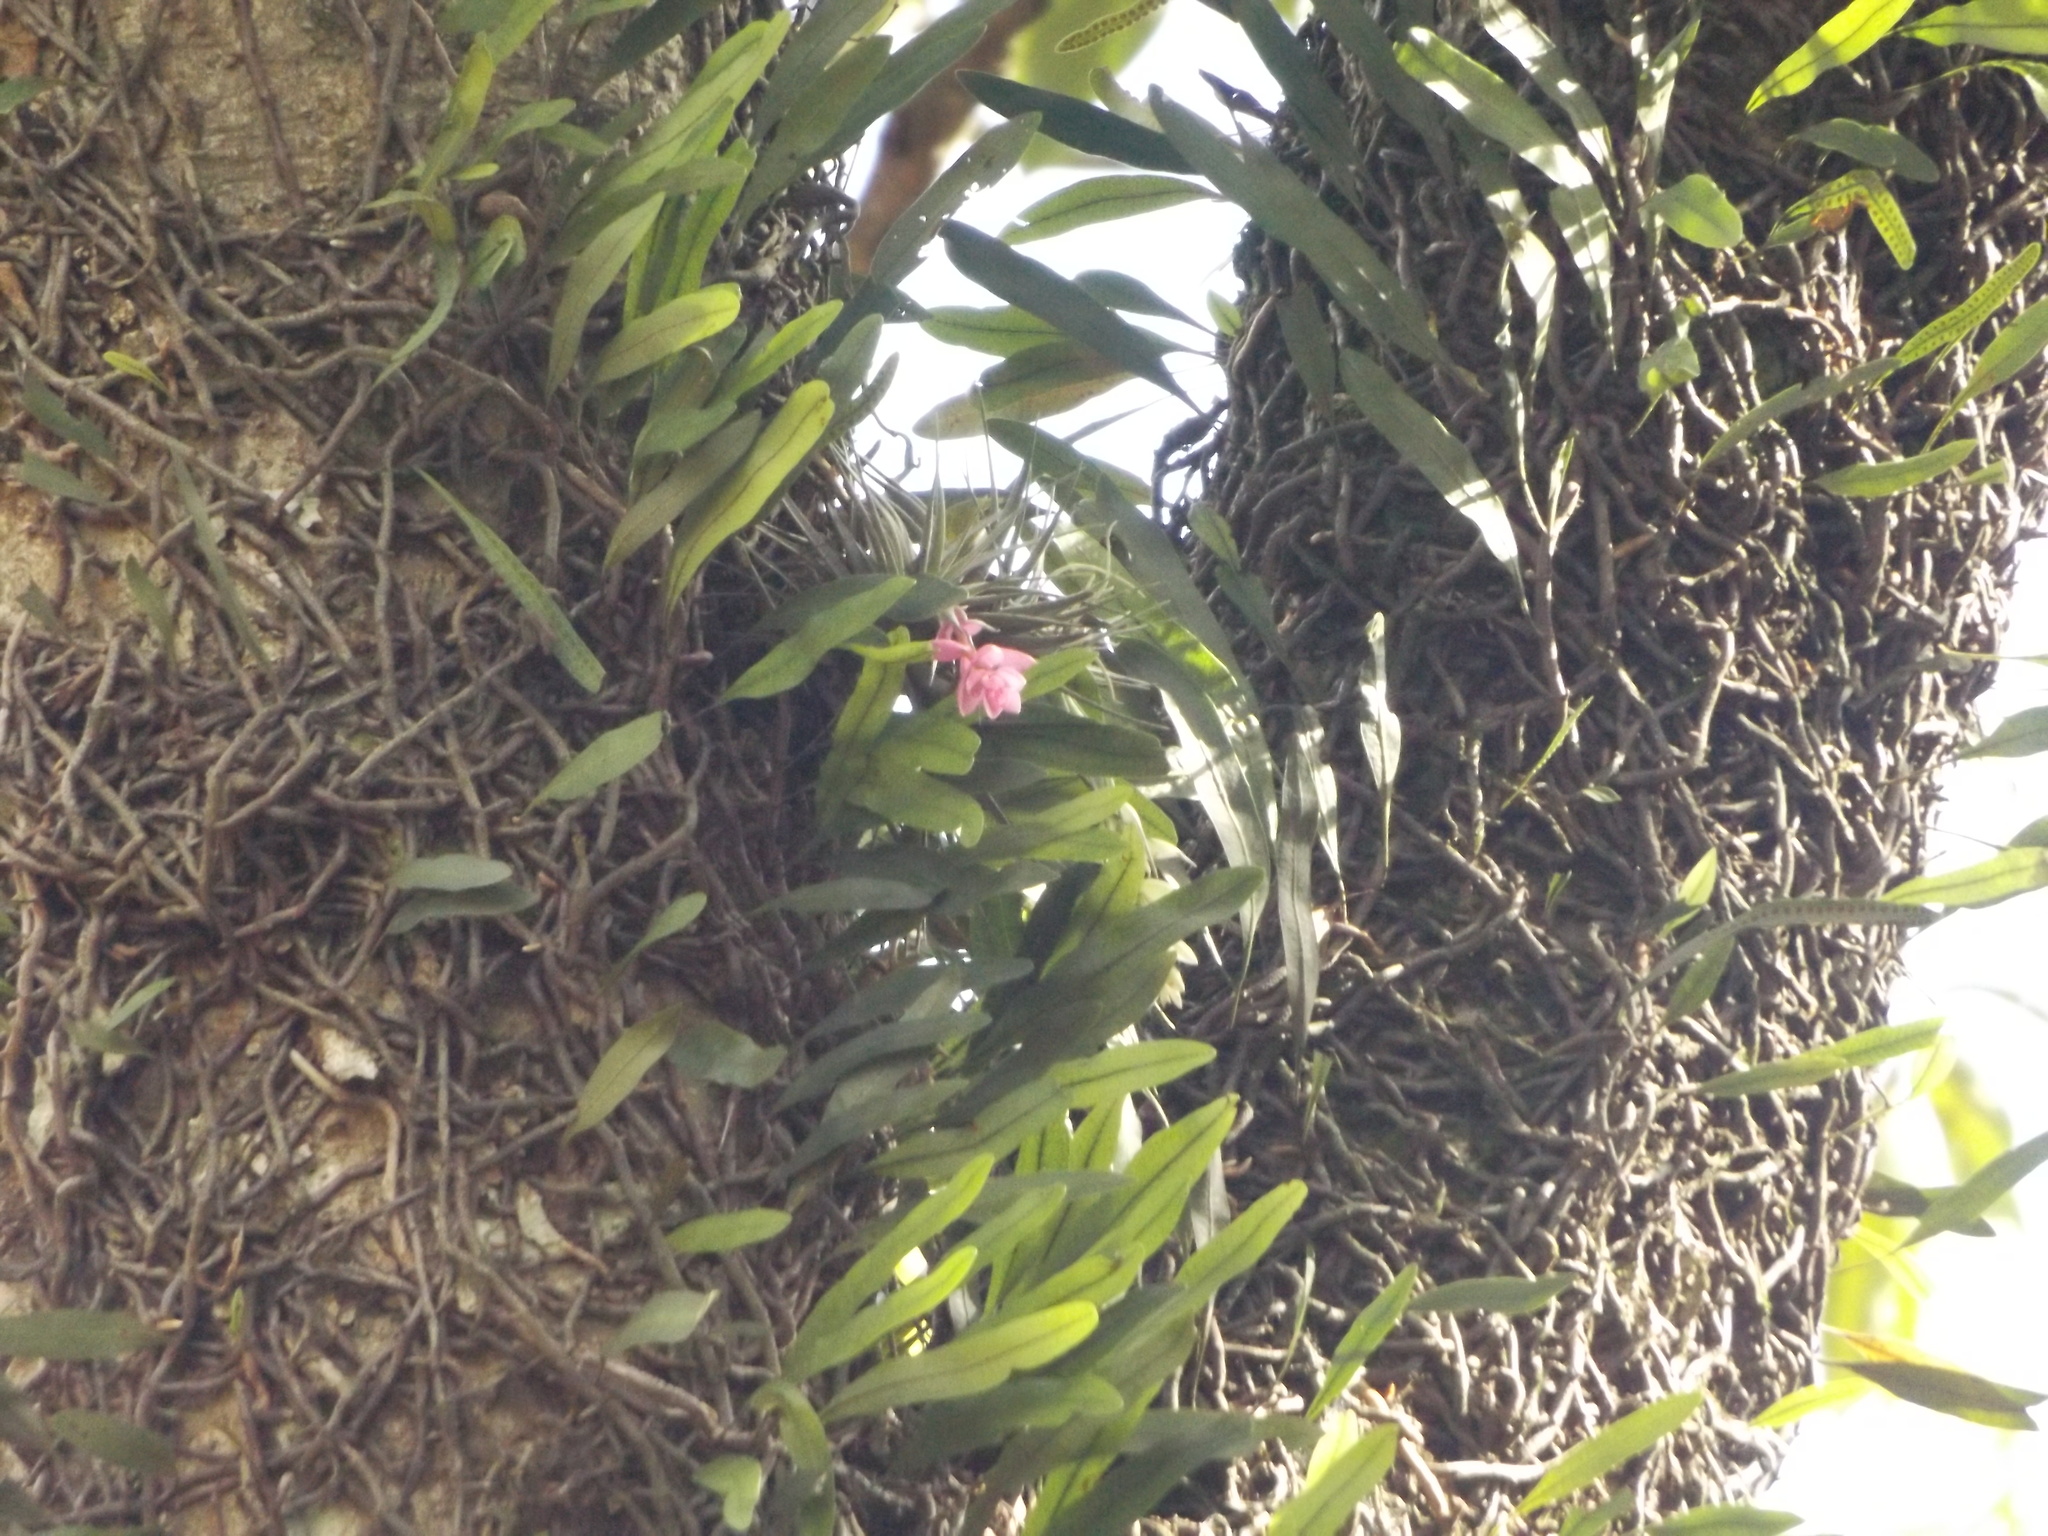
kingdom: Plantae
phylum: Tracheophyta
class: Liliopsida
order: Poales
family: Bromeliaceae
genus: Tillandsia
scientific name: Tillandsia stricta
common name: Airplant
